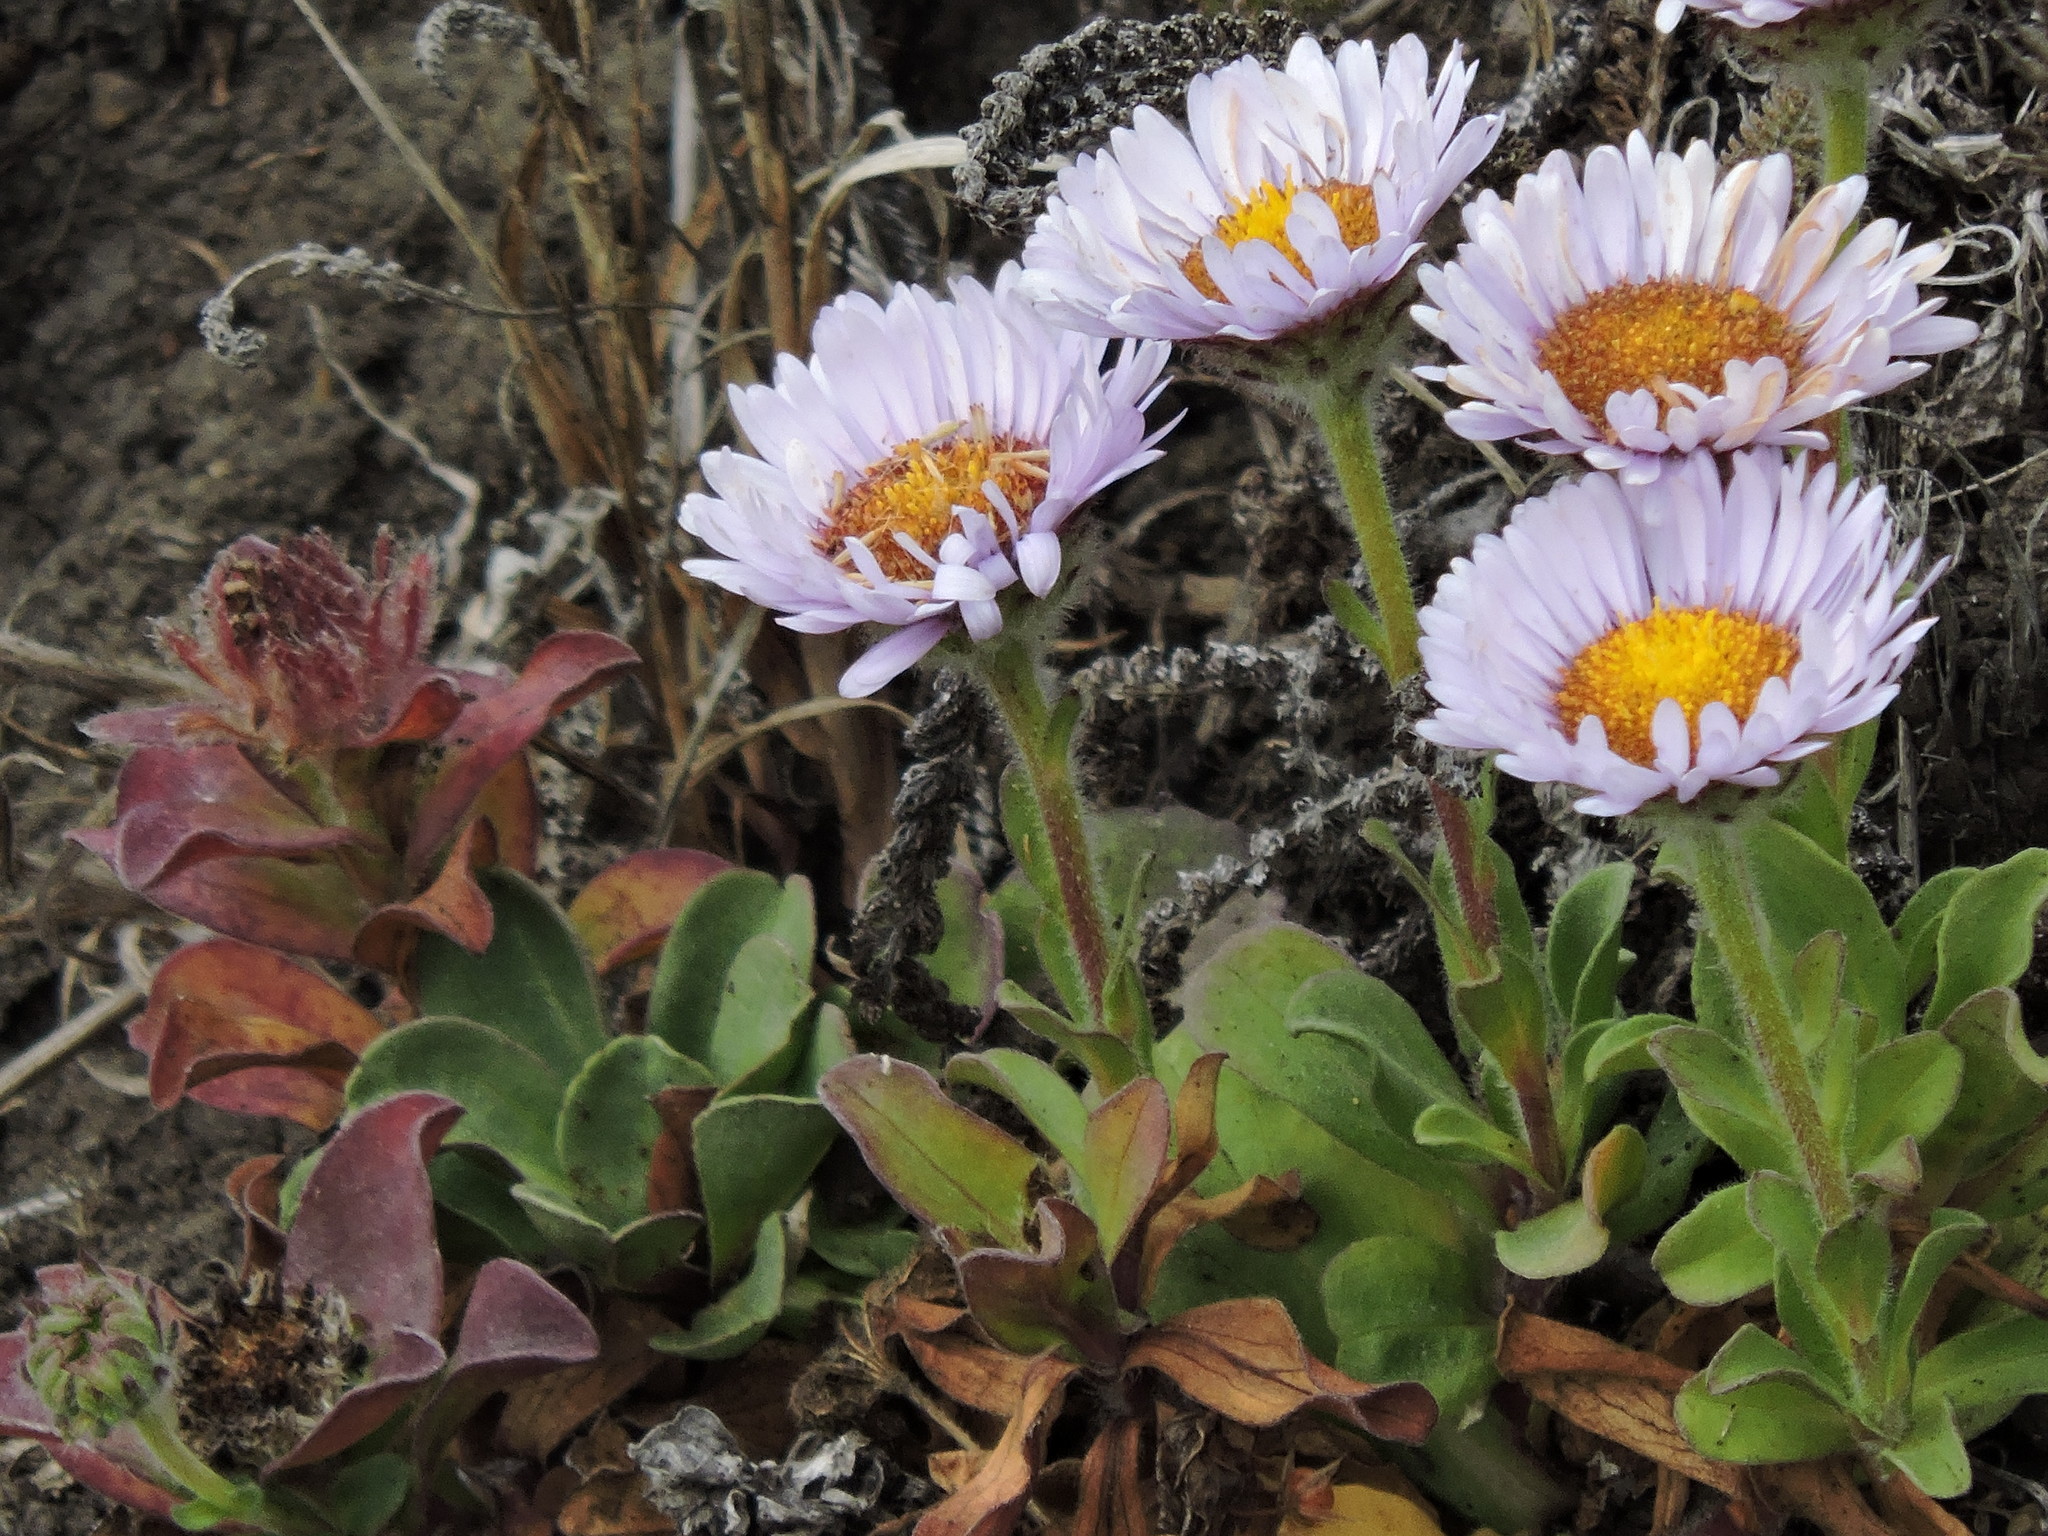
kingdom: Plantae
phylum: Tracheophyta
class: Magnoliopsida
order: Asterales
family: Asteraceae
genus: Erigeron
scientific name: Erigeron glaucus
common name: Seaside daisy
